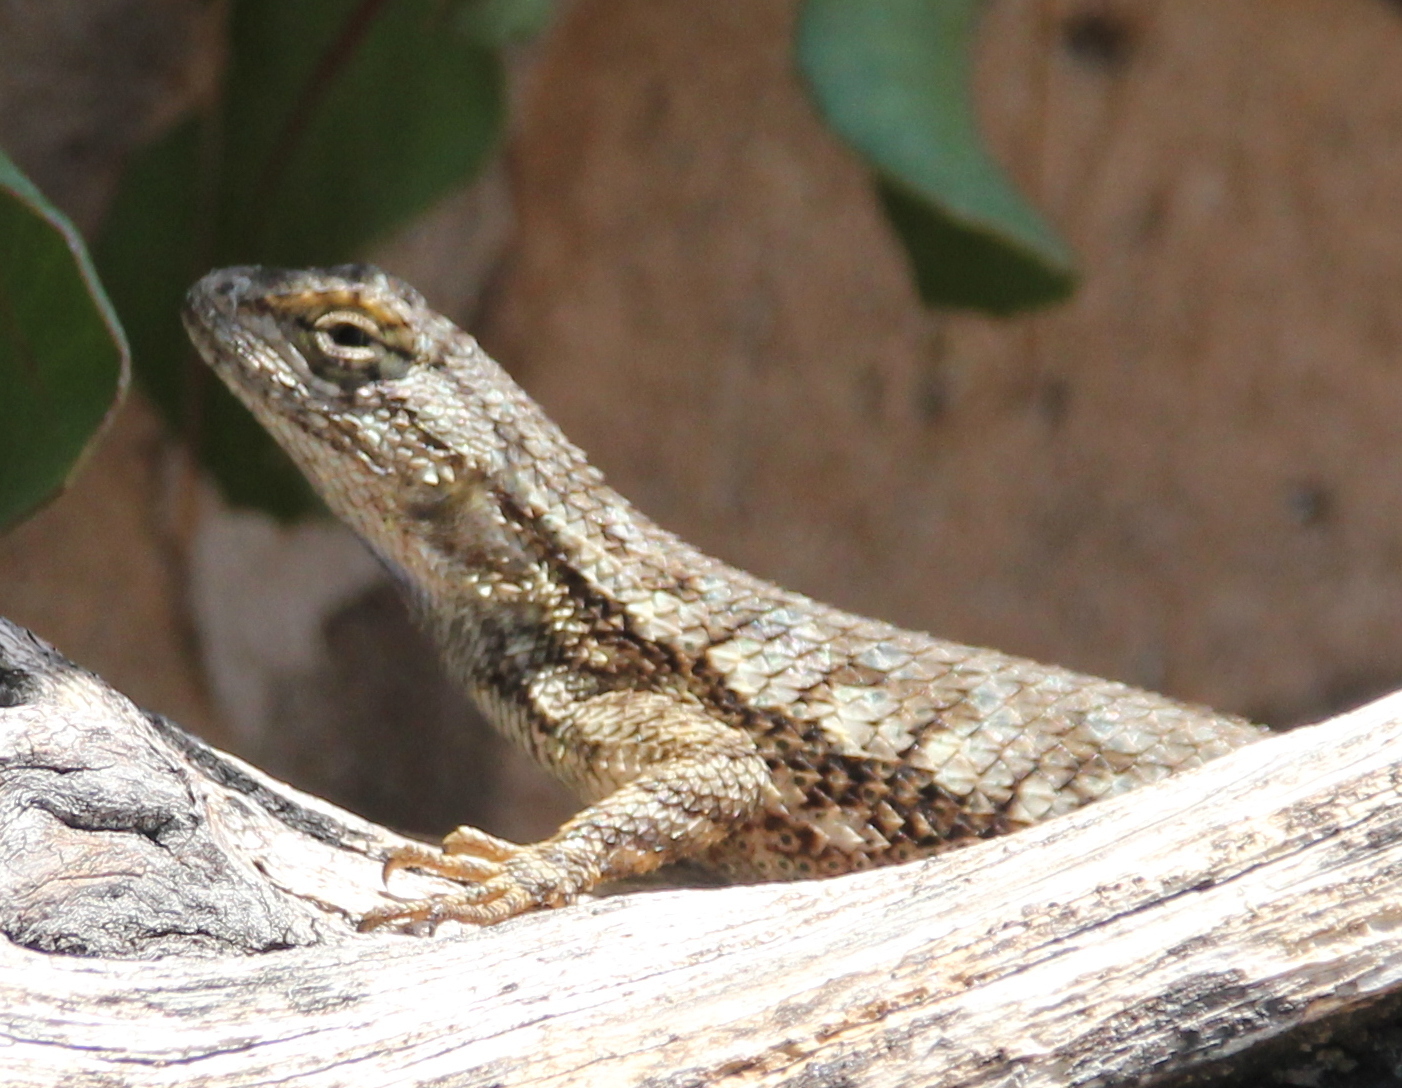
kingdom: Animalia
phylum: Chordata
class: Squamata
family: Phrynosomatidae
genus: Sceloporus
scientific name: Sceloporus occidentalis
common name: Western fence lizard
